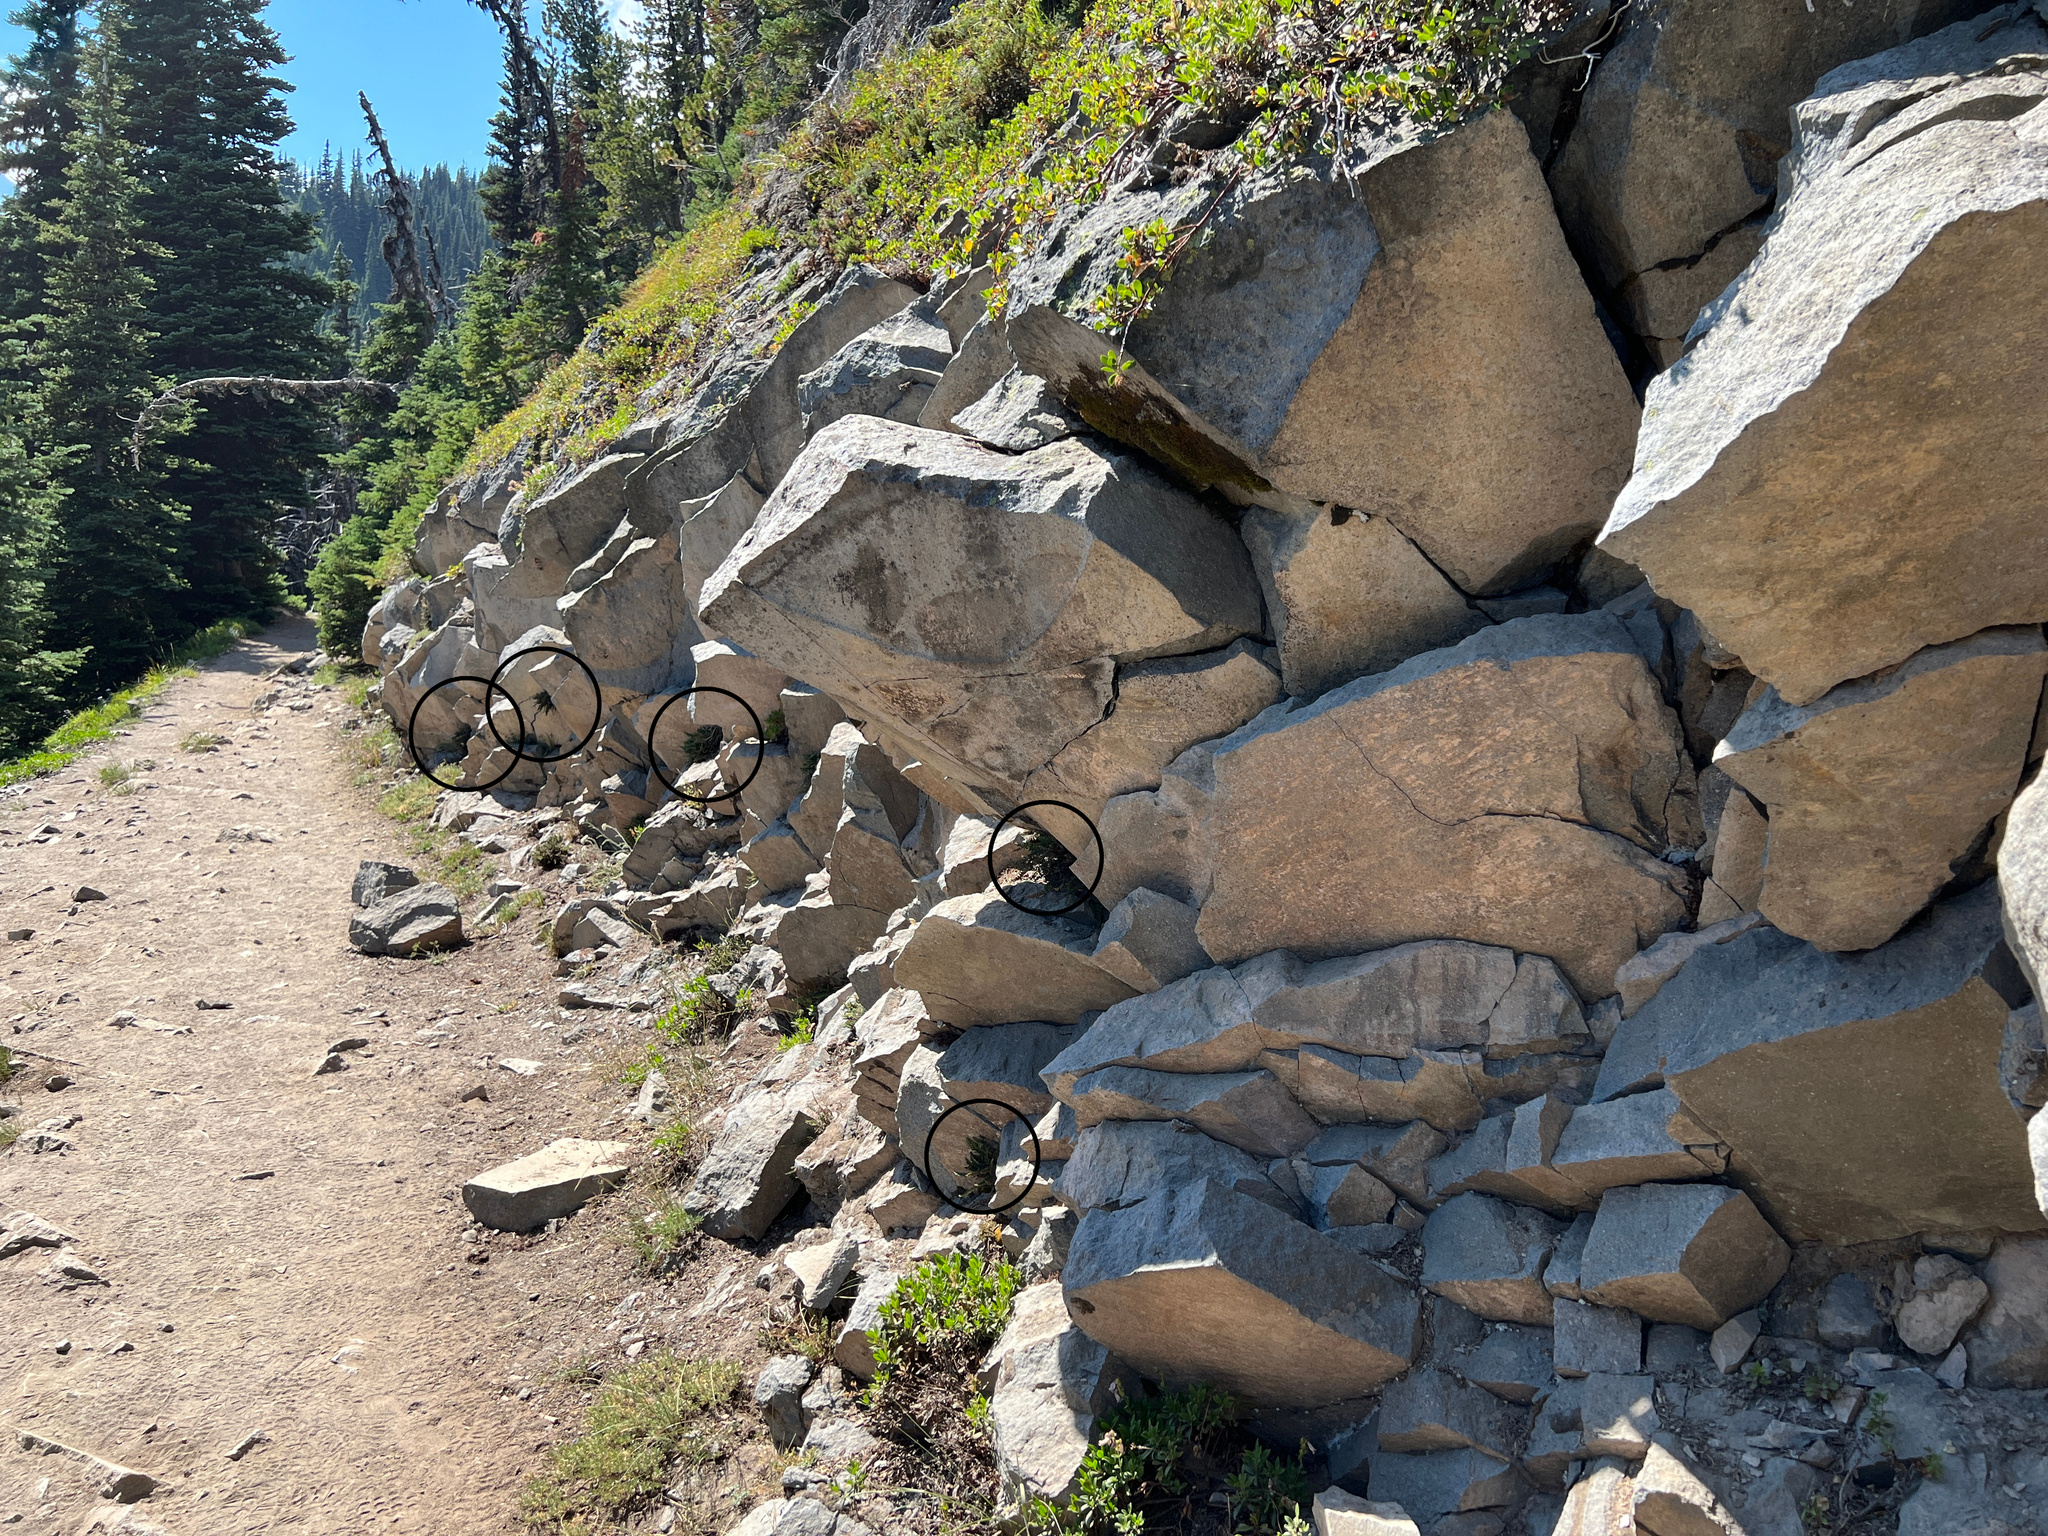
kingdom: Plantae
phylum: Tracheophyta
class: Polypodiopsida
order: Polypodiales
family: Pteridaceae
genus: Myriopteris
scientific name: Myriopteris gracillima
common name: Lace fern
